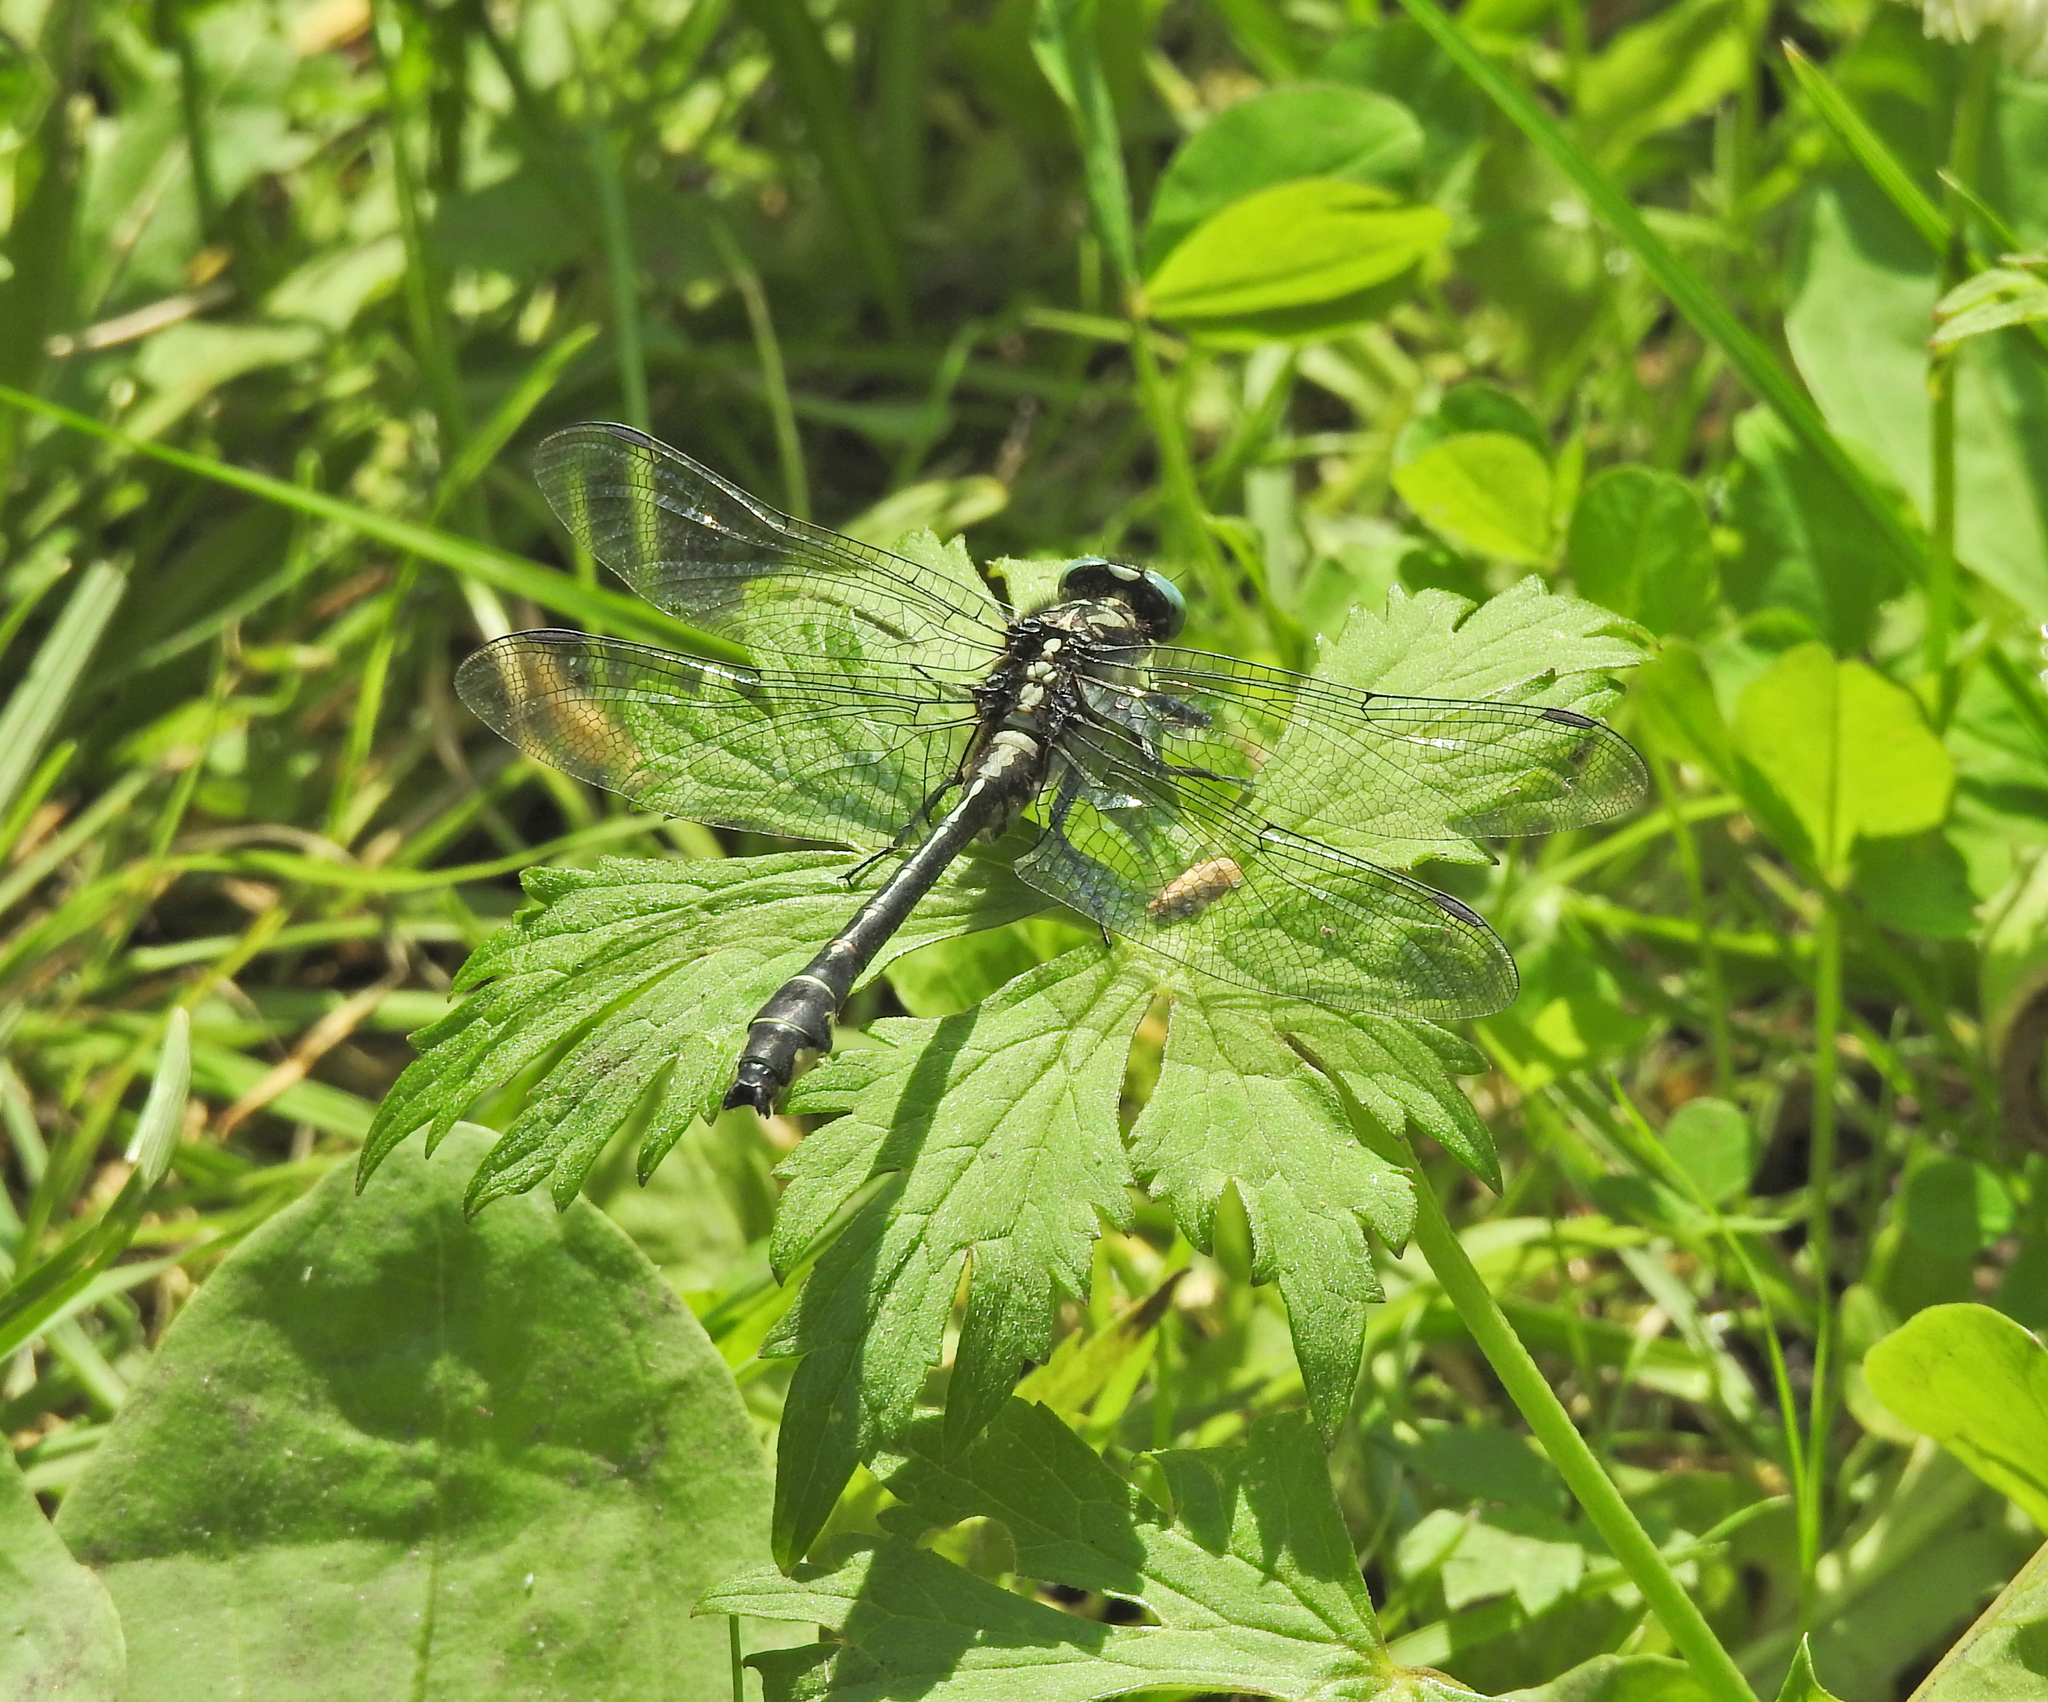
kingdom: Animalia
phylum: Arthropoda
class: Insecta
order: Odonata
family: Gomphidae
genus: Gomphus
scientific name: Gomphus vulgatissimus
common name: Club-tailed dragonfly
